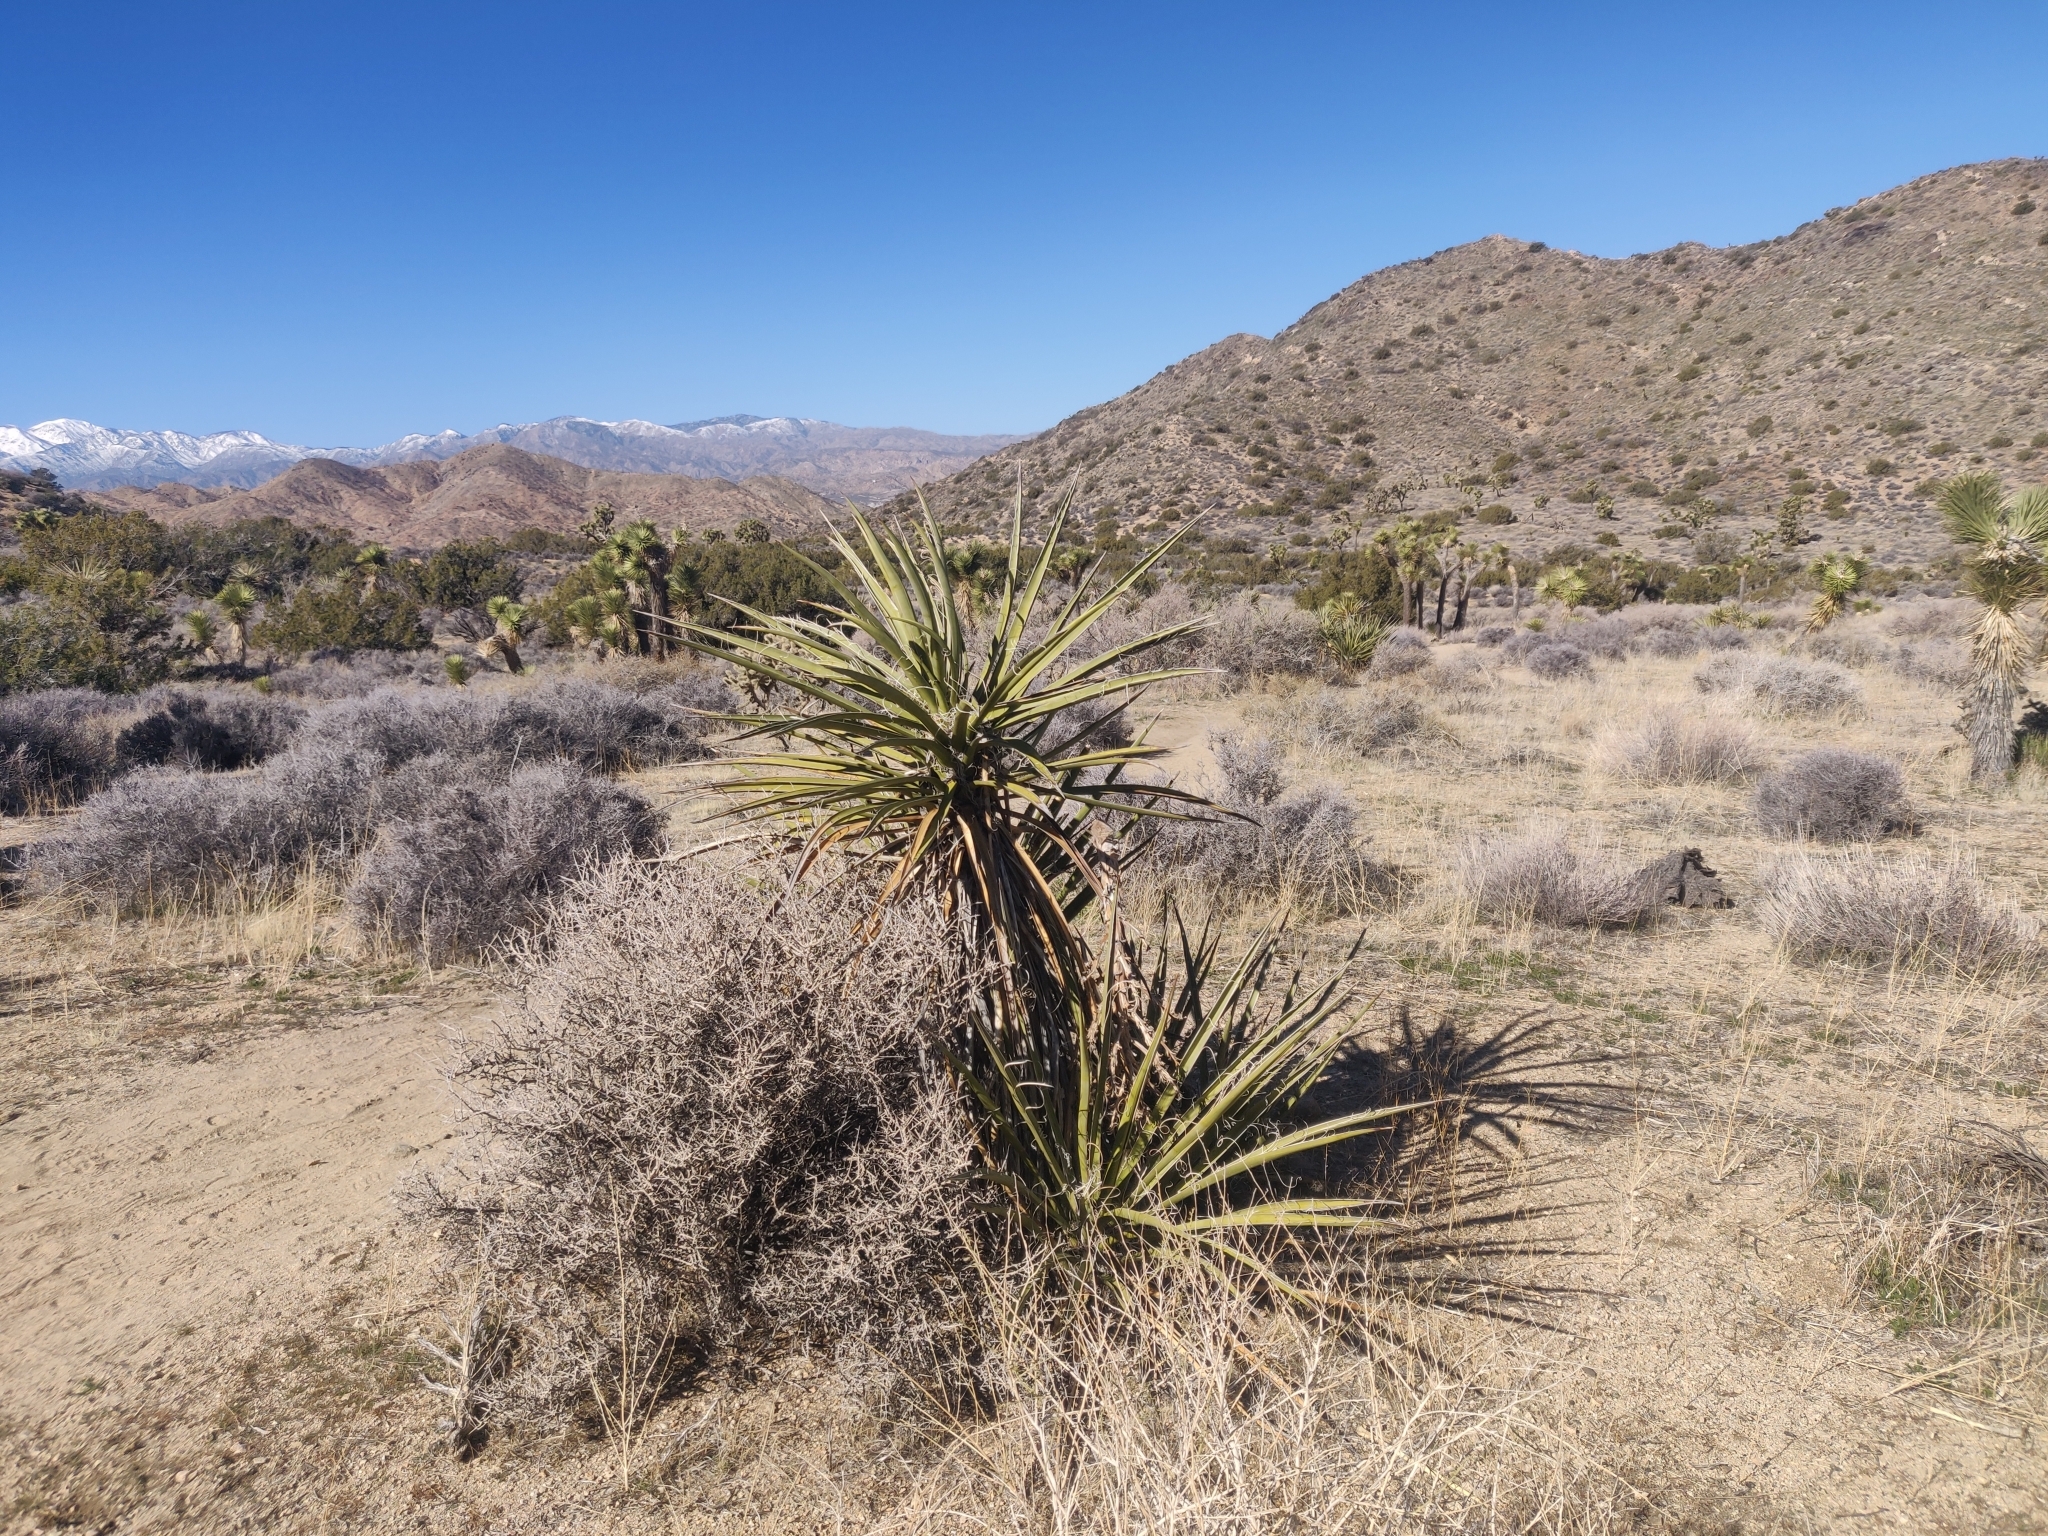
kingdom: Plantae
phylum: Tracheophyta
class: Liliopsida
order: Asparagales
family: Asparagaceae
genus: Yucca
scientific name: Yucca schidigera
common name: Mojave yucca
